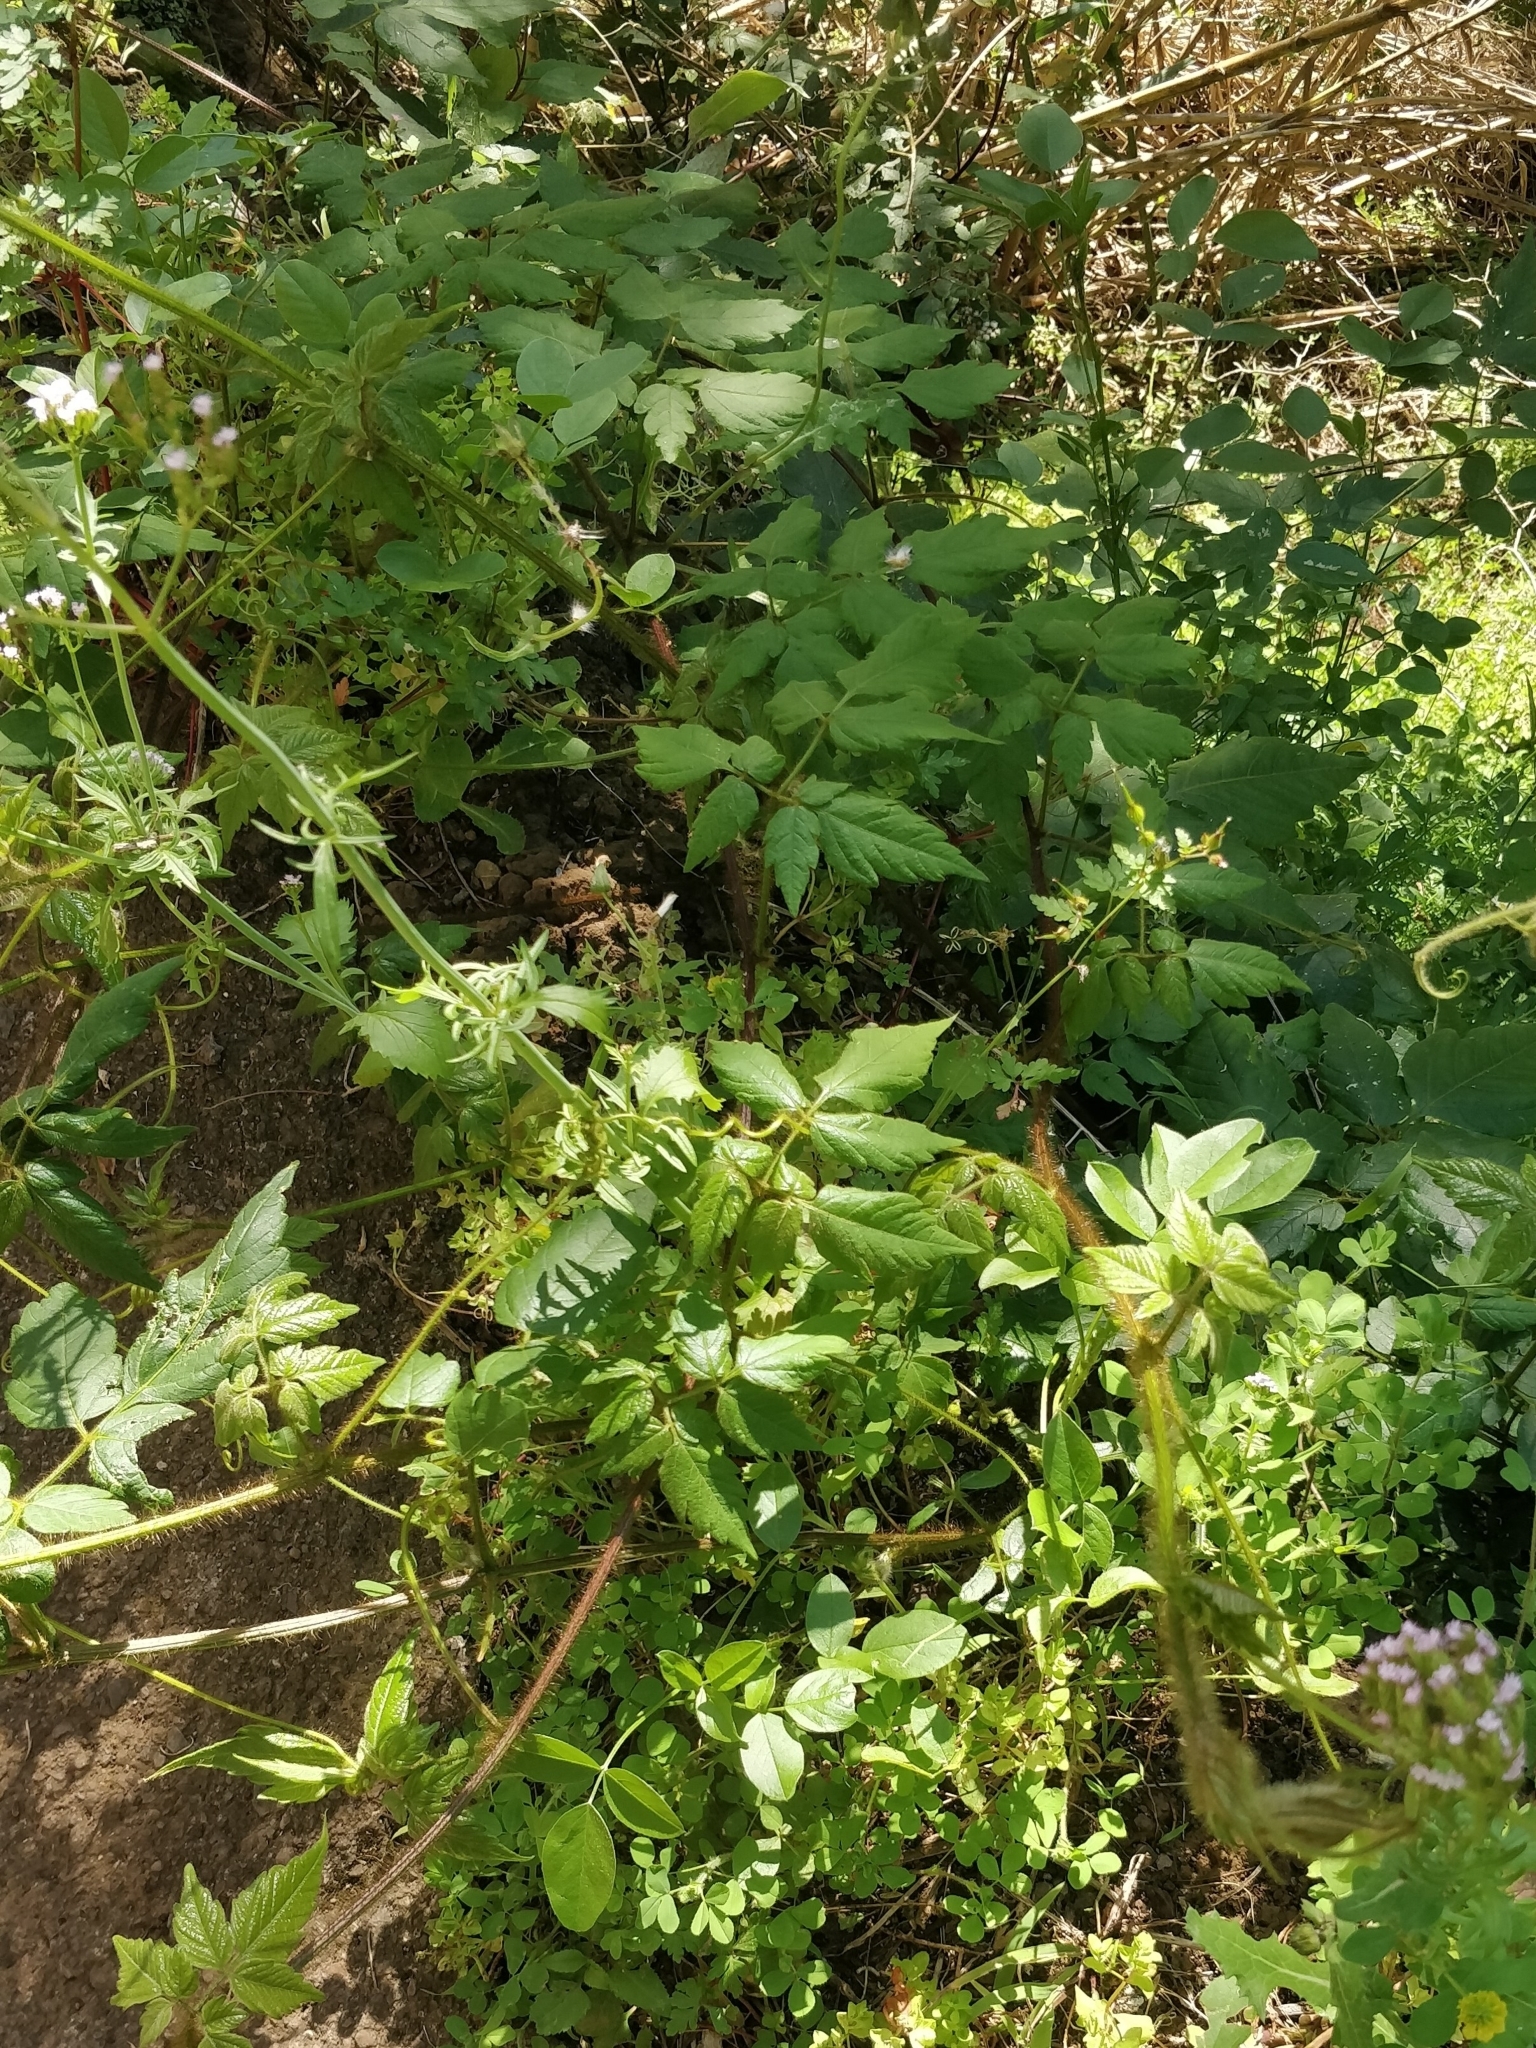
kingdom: Plantae
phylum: Tracheophyta
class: Magnoliopsida
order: Sapindales
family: Sapindaceae
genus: Cardiospermum
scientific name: Cardiospermum grandiflorum
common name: Balloon vine
